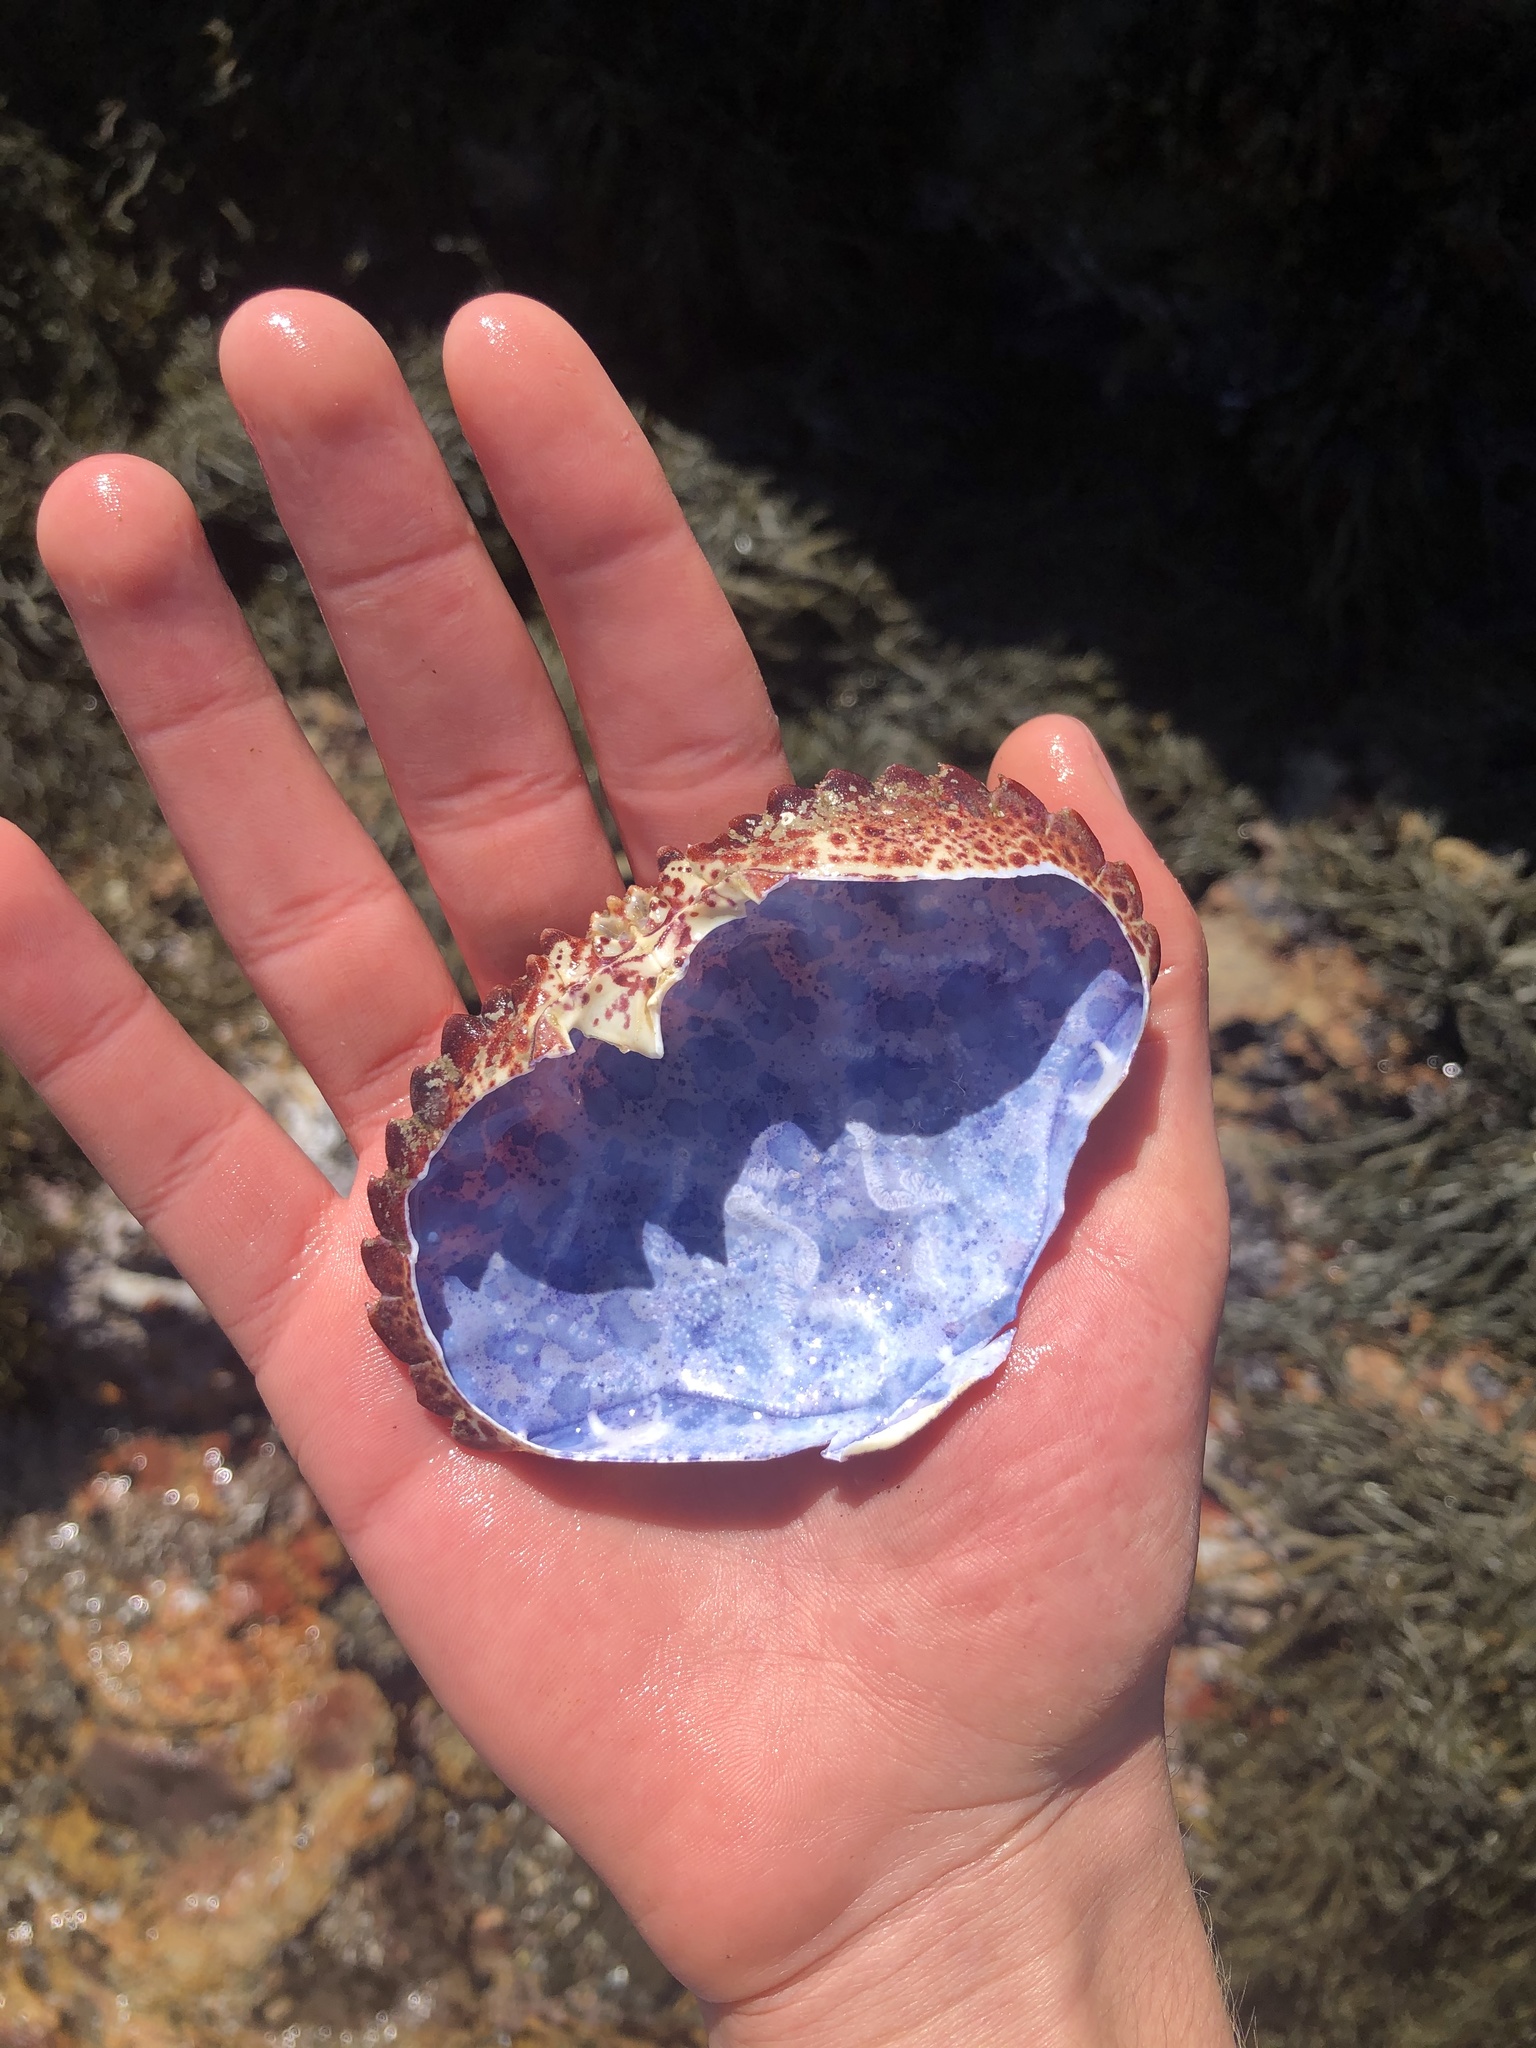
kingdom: Animalia
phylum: Arthropoda
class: Malacostraca
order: Decapoda
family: Cancridae
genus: Romaleon
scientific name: Romaleon antennarium
